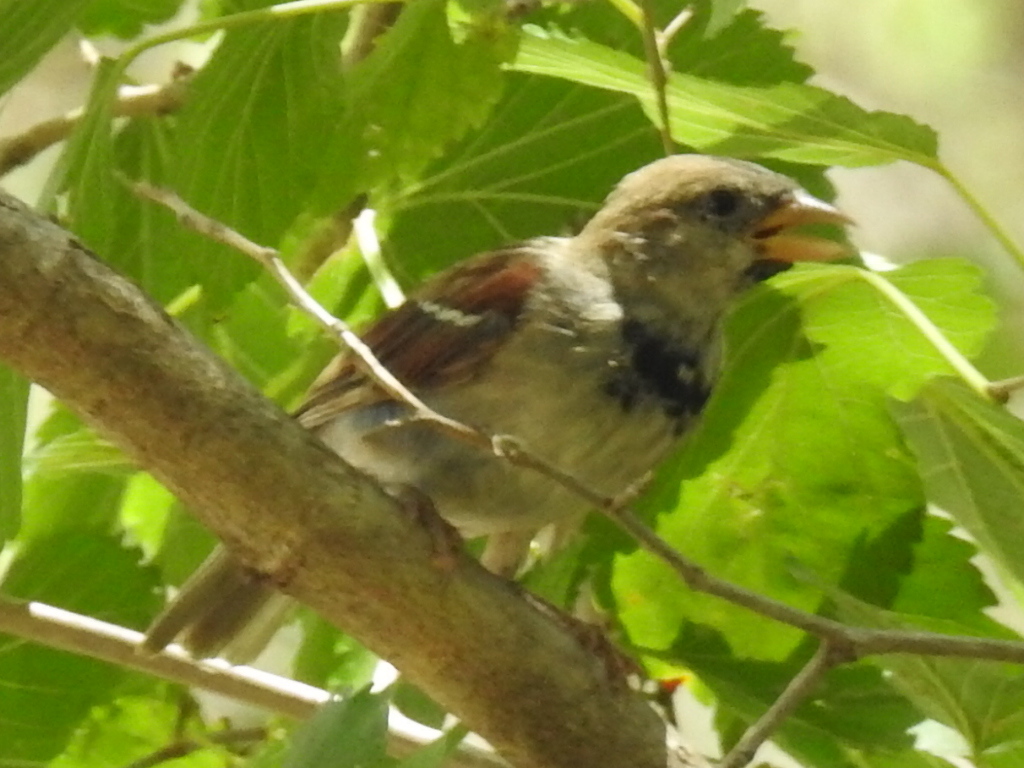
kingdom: Animalia
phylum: Chordata
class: Aves
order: Passeriformes
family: Passeridae
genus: Passer
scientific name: Passer domesticus
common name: House sparrow
